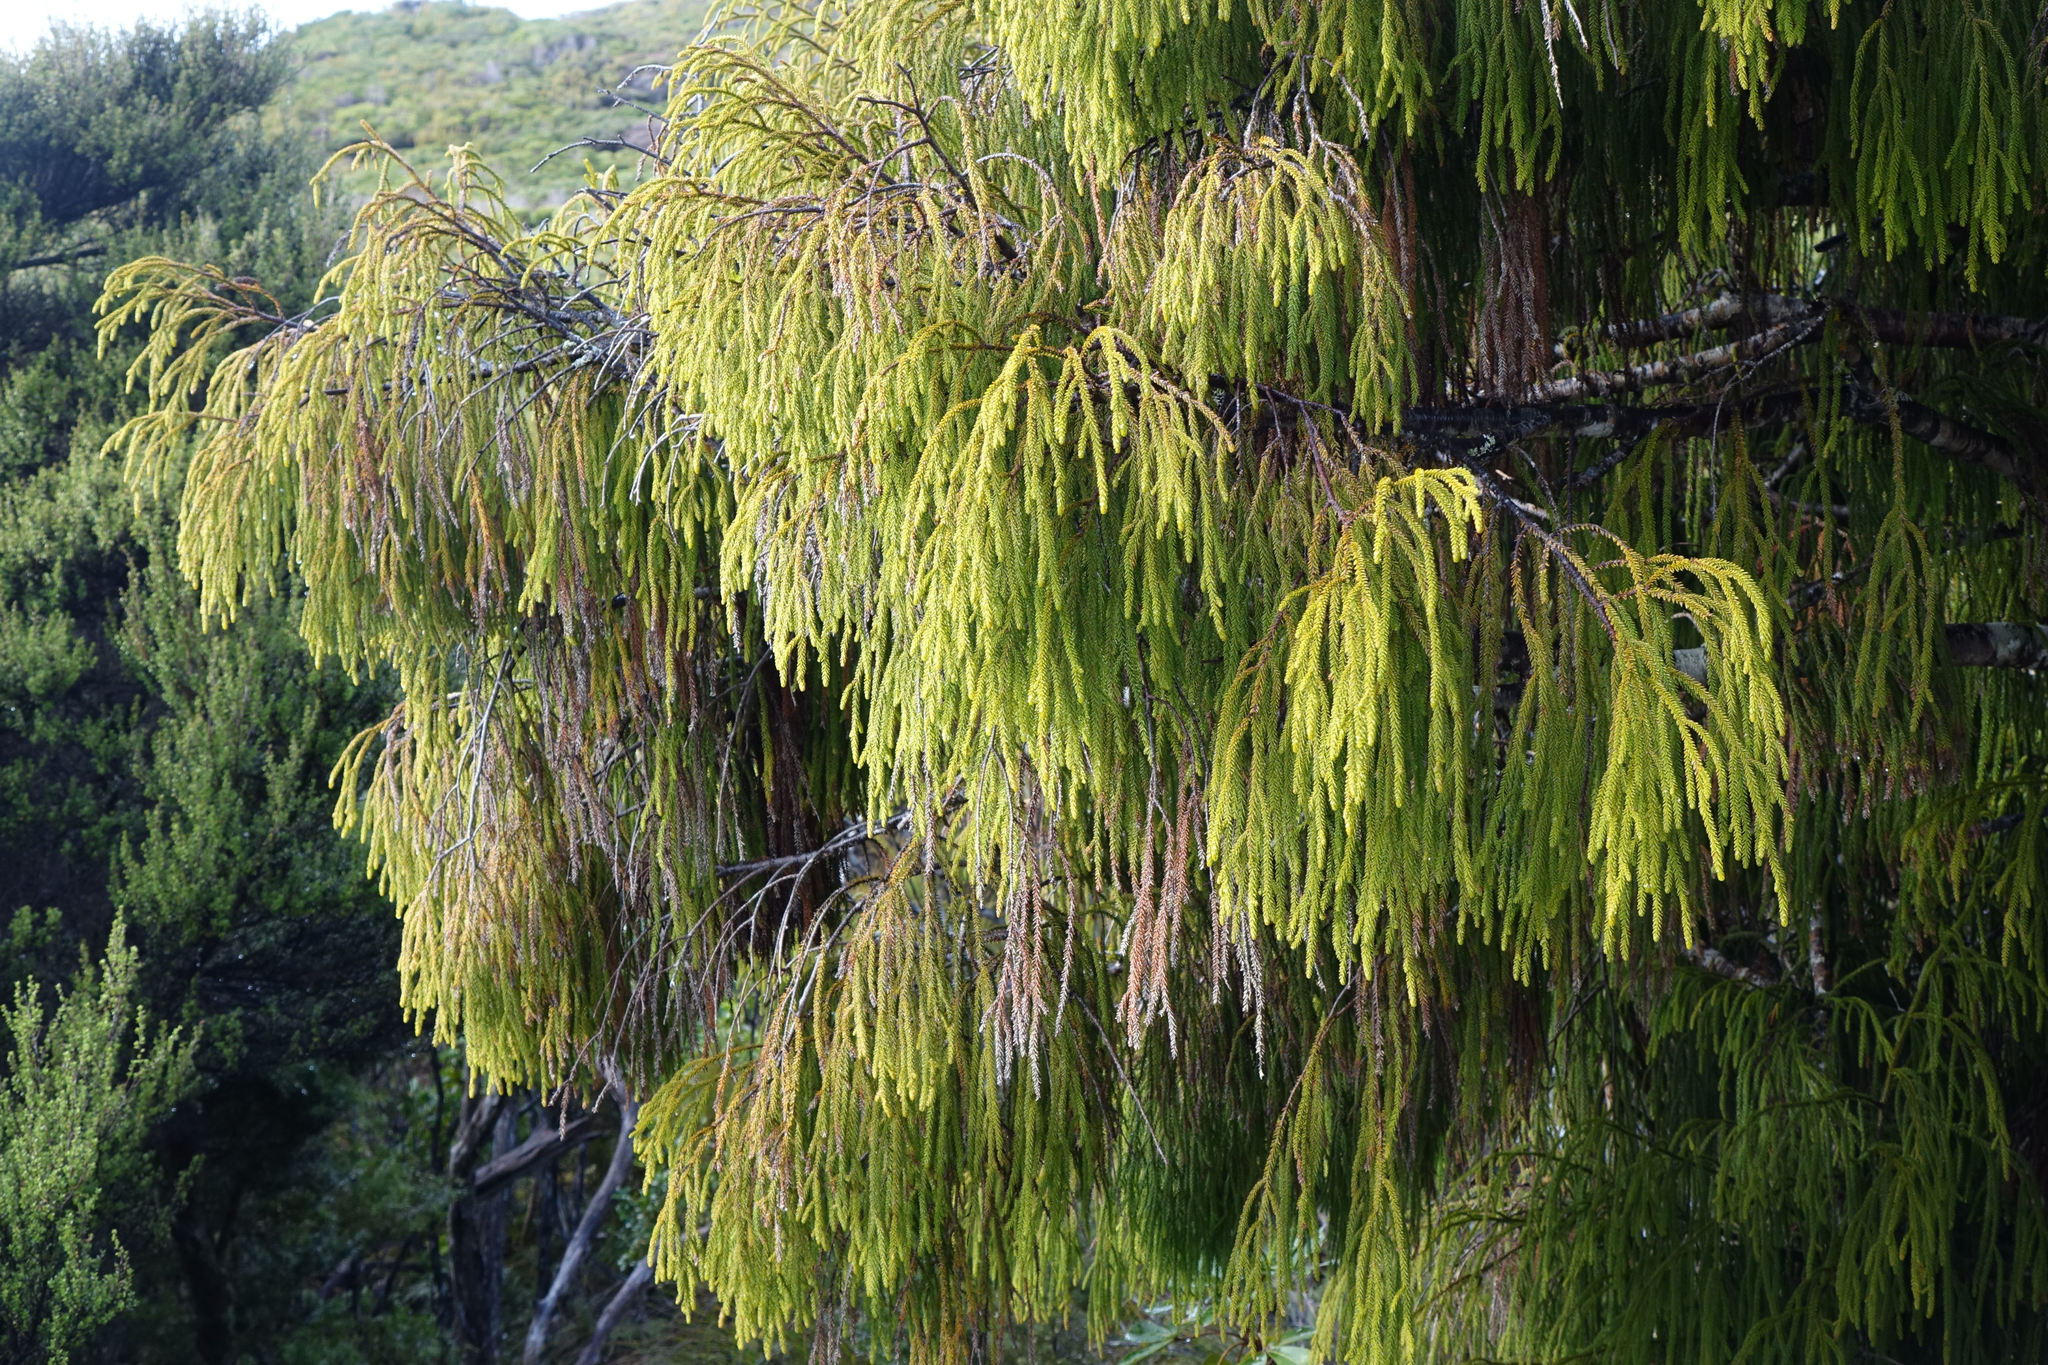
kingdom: Plantae
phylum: Tracheophyta
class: Pinopsida
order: Pinales
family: Podocarpaceae
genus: Dacrydium
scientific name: Dacrydium cupressinum
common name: Red pine
